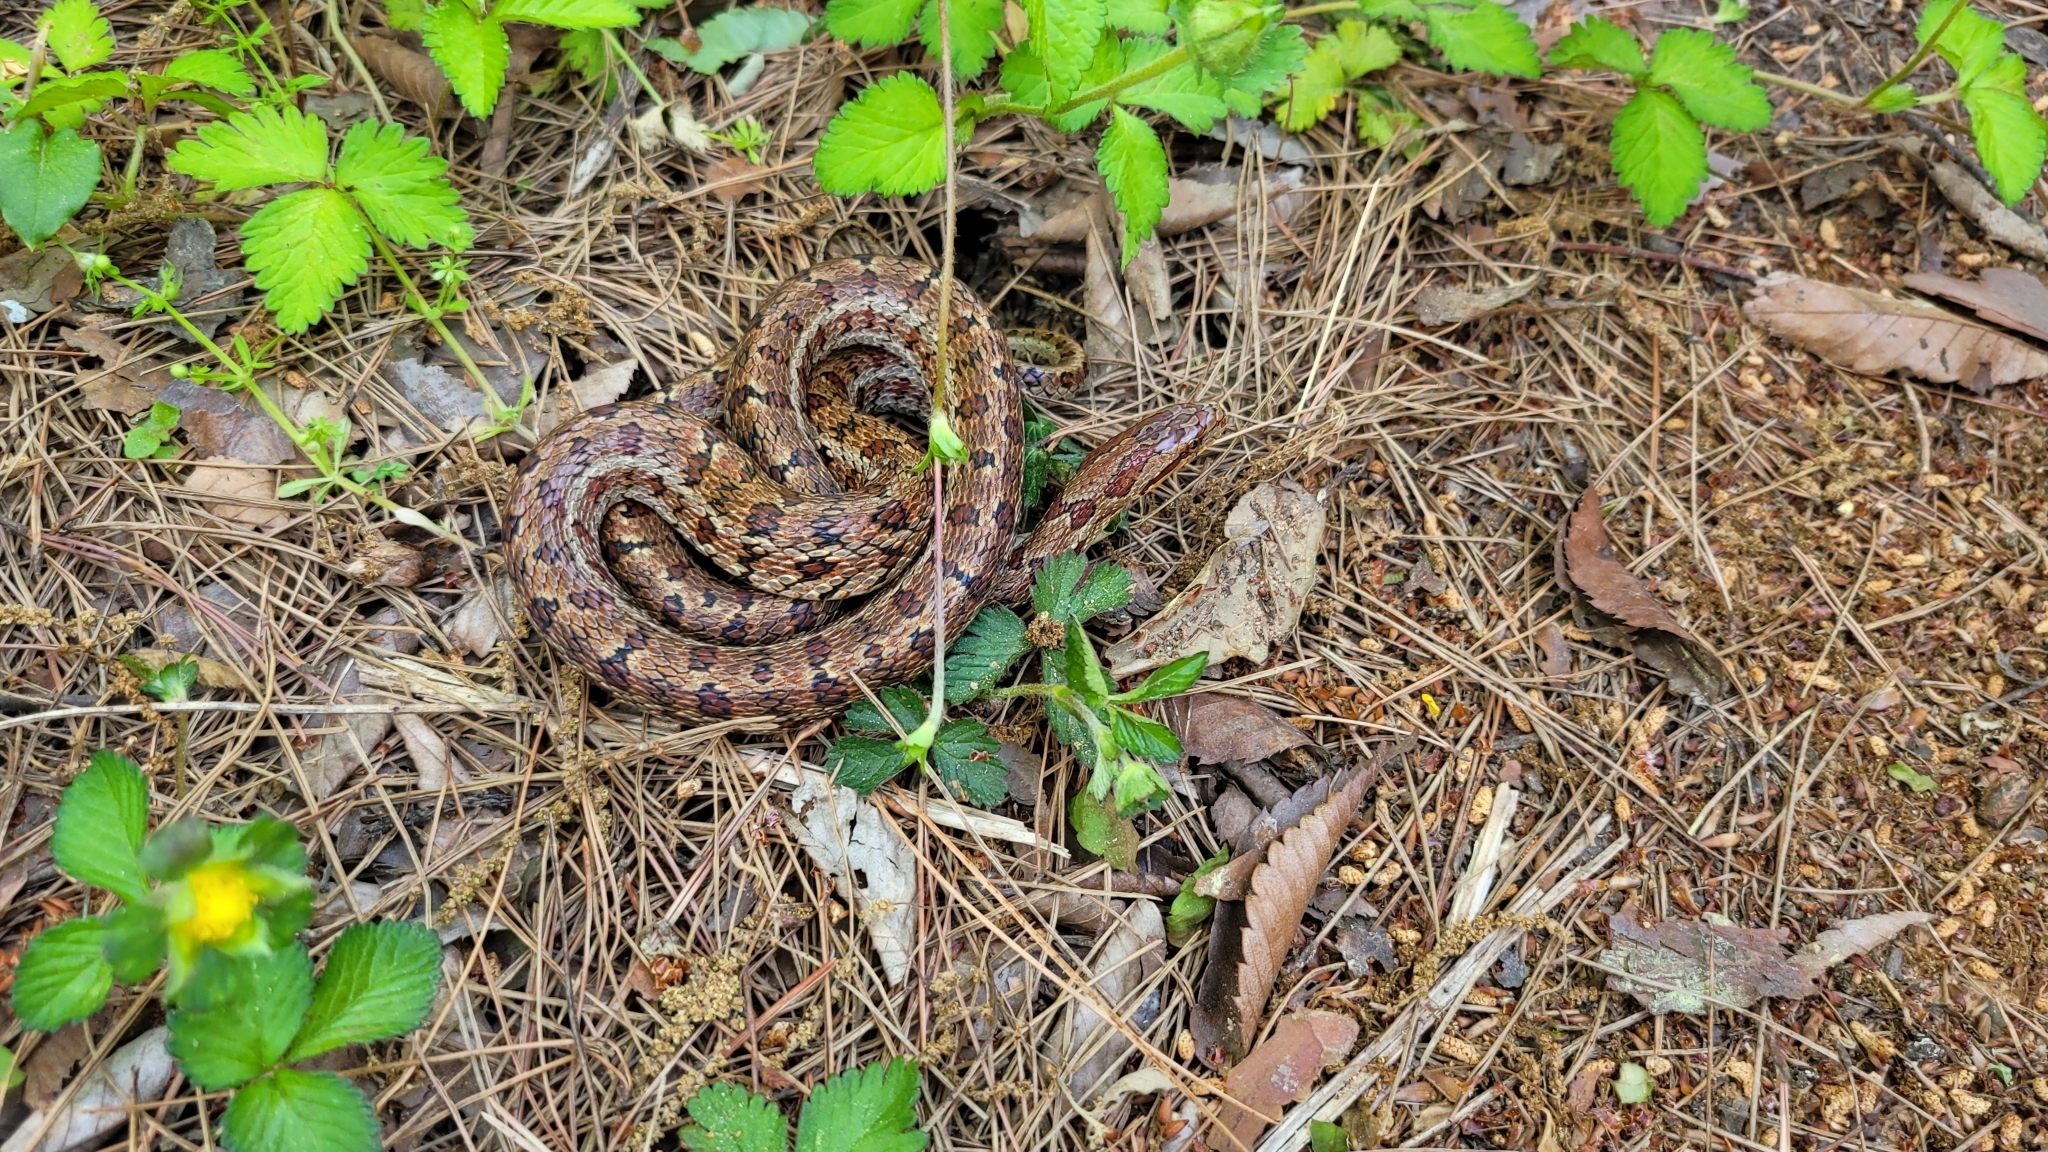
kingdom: Animalia
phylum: Chordata
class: Squamata
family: Colubridae
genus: Elaphe
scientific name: Elaphe dione
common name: Dione ratsnake
